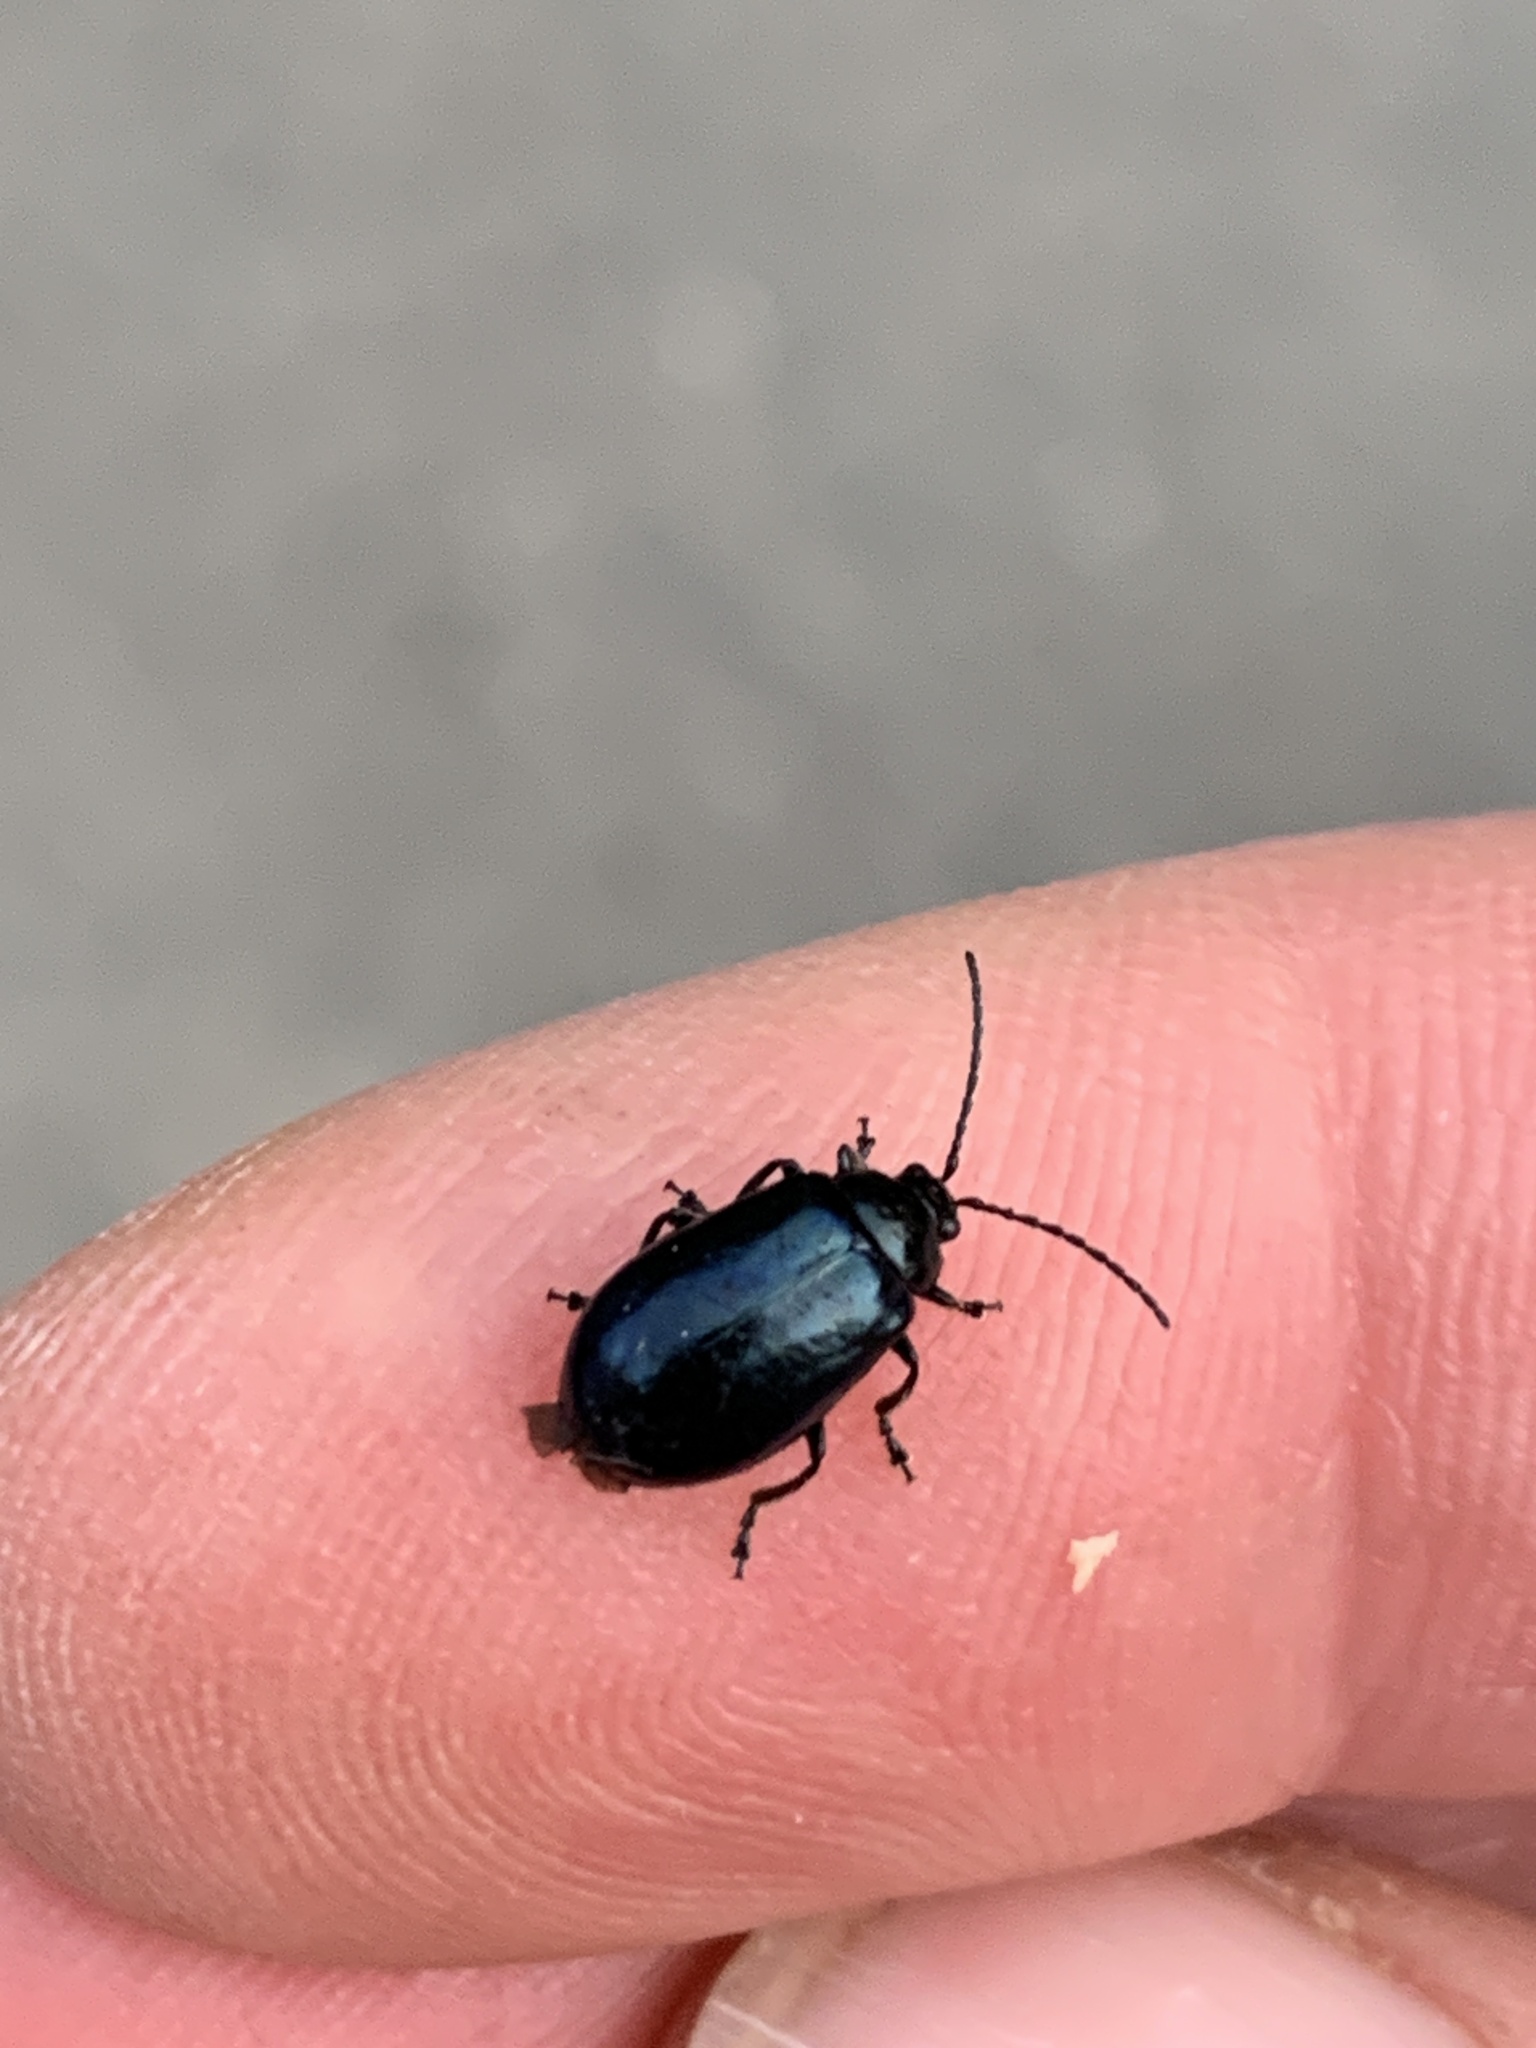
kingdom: Animalia
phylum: Arthropoda
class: Insecta
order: Coleoptera
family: Chrysomelidae
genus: Agelastica
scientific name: Agelastica alni
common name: Alder leaf beetle
